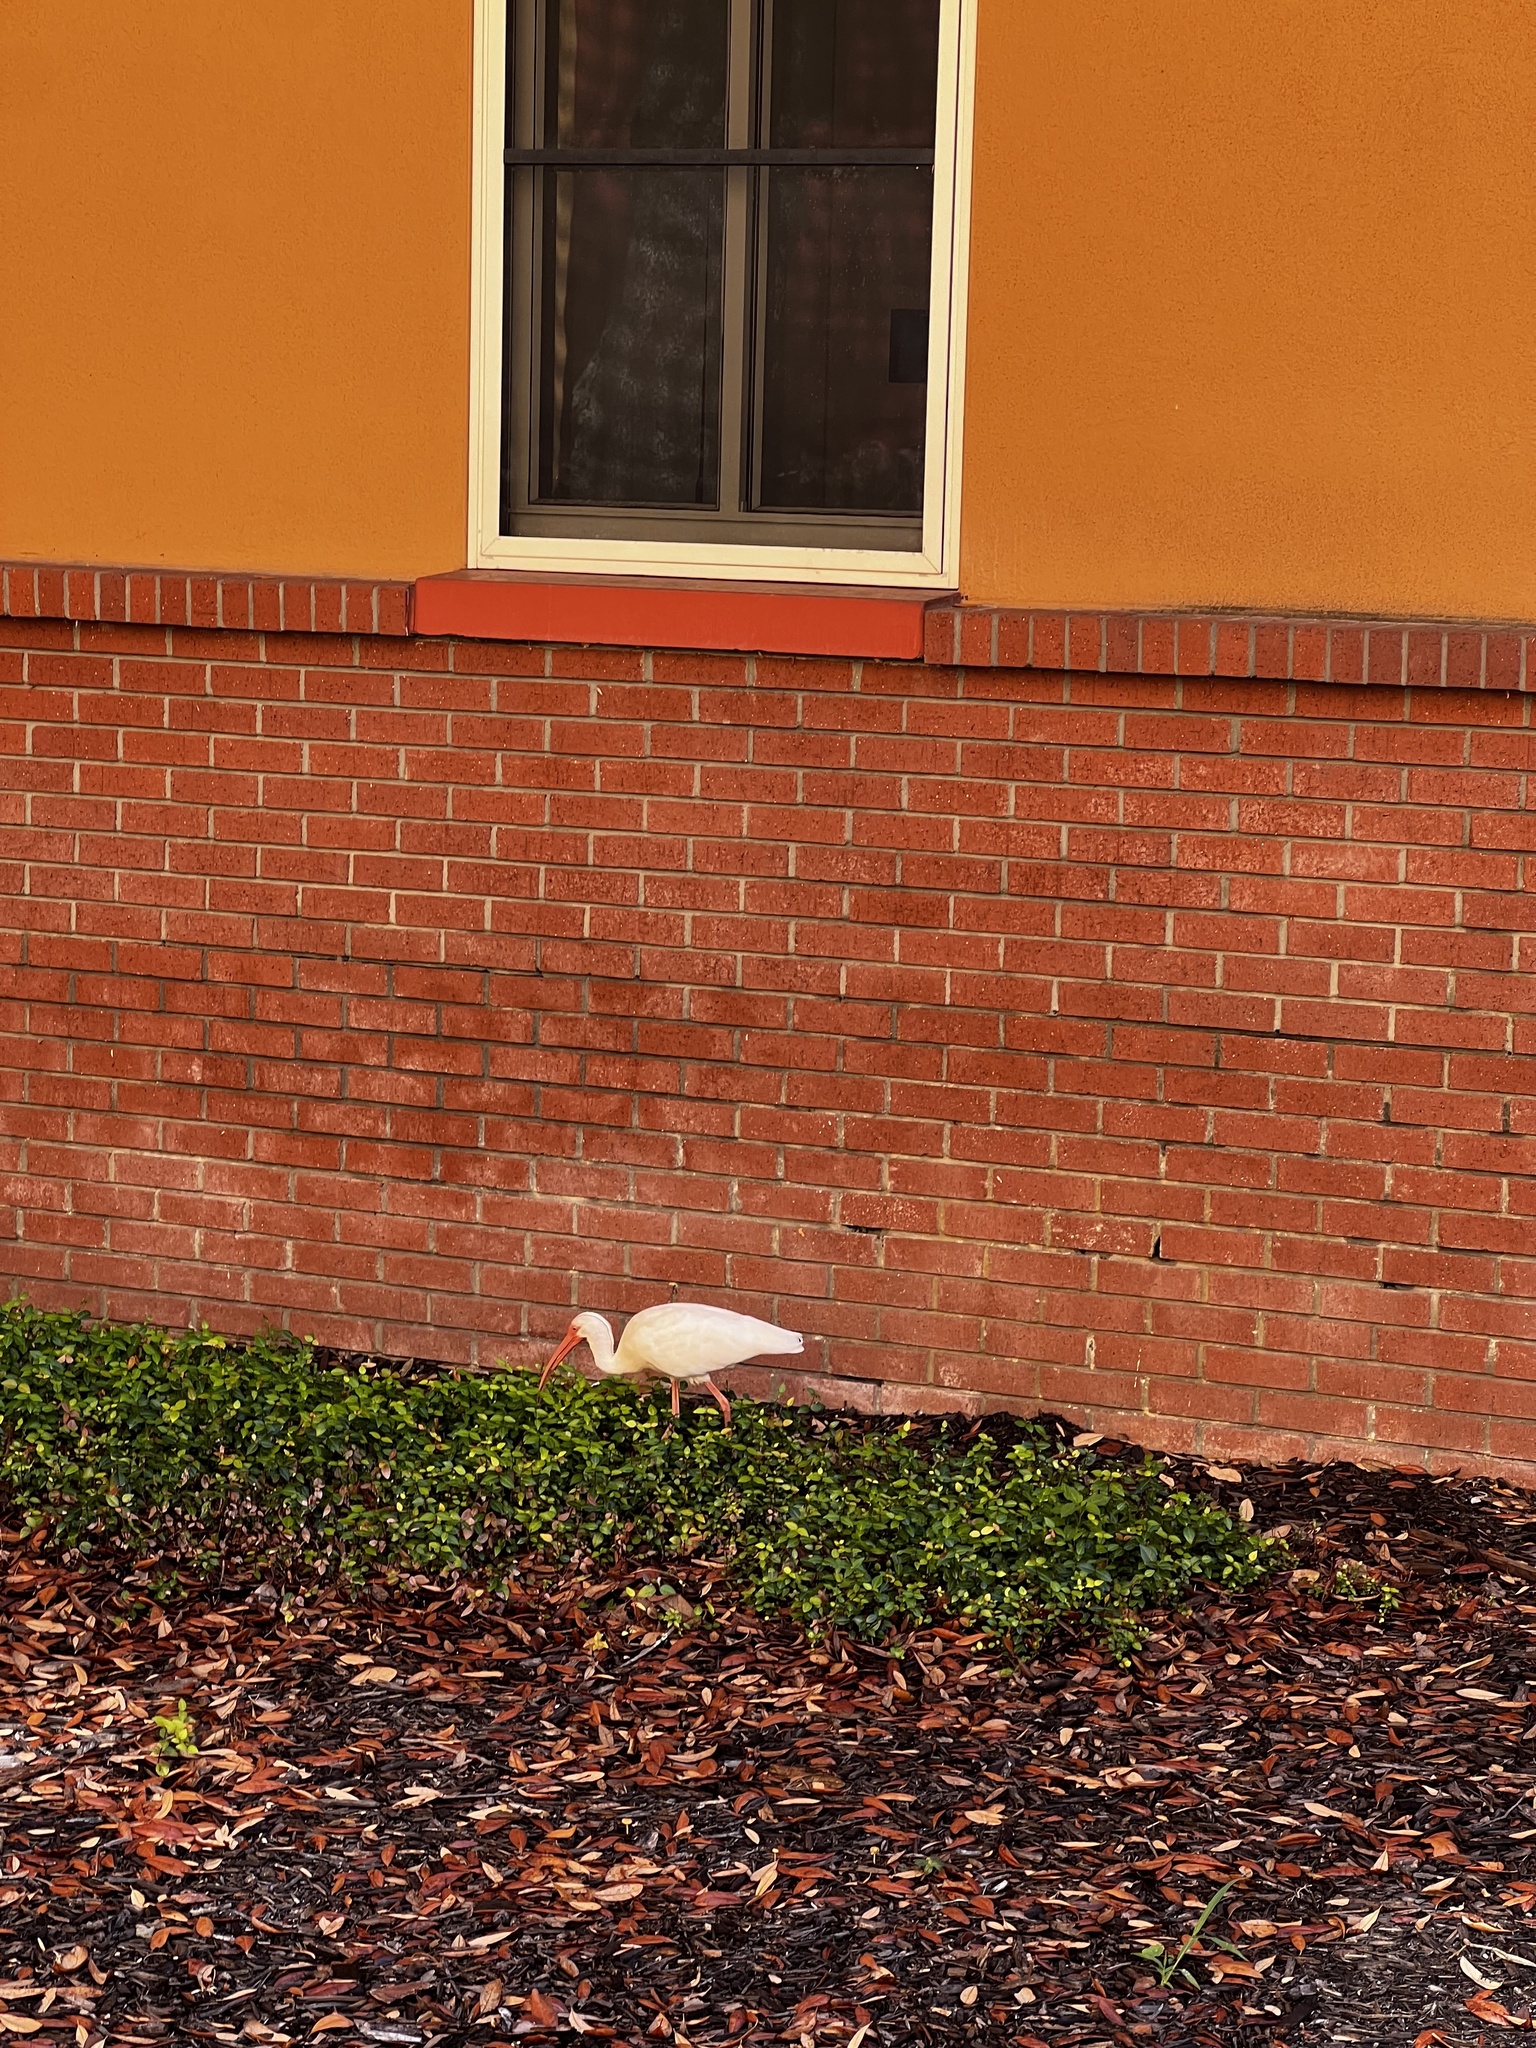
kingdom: Animalia
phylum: Chordata
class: Aves
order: Pelecaniformes
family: Threskiornithidae
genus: Eudocimus
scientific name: Eudocimus albus
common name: White ibis
